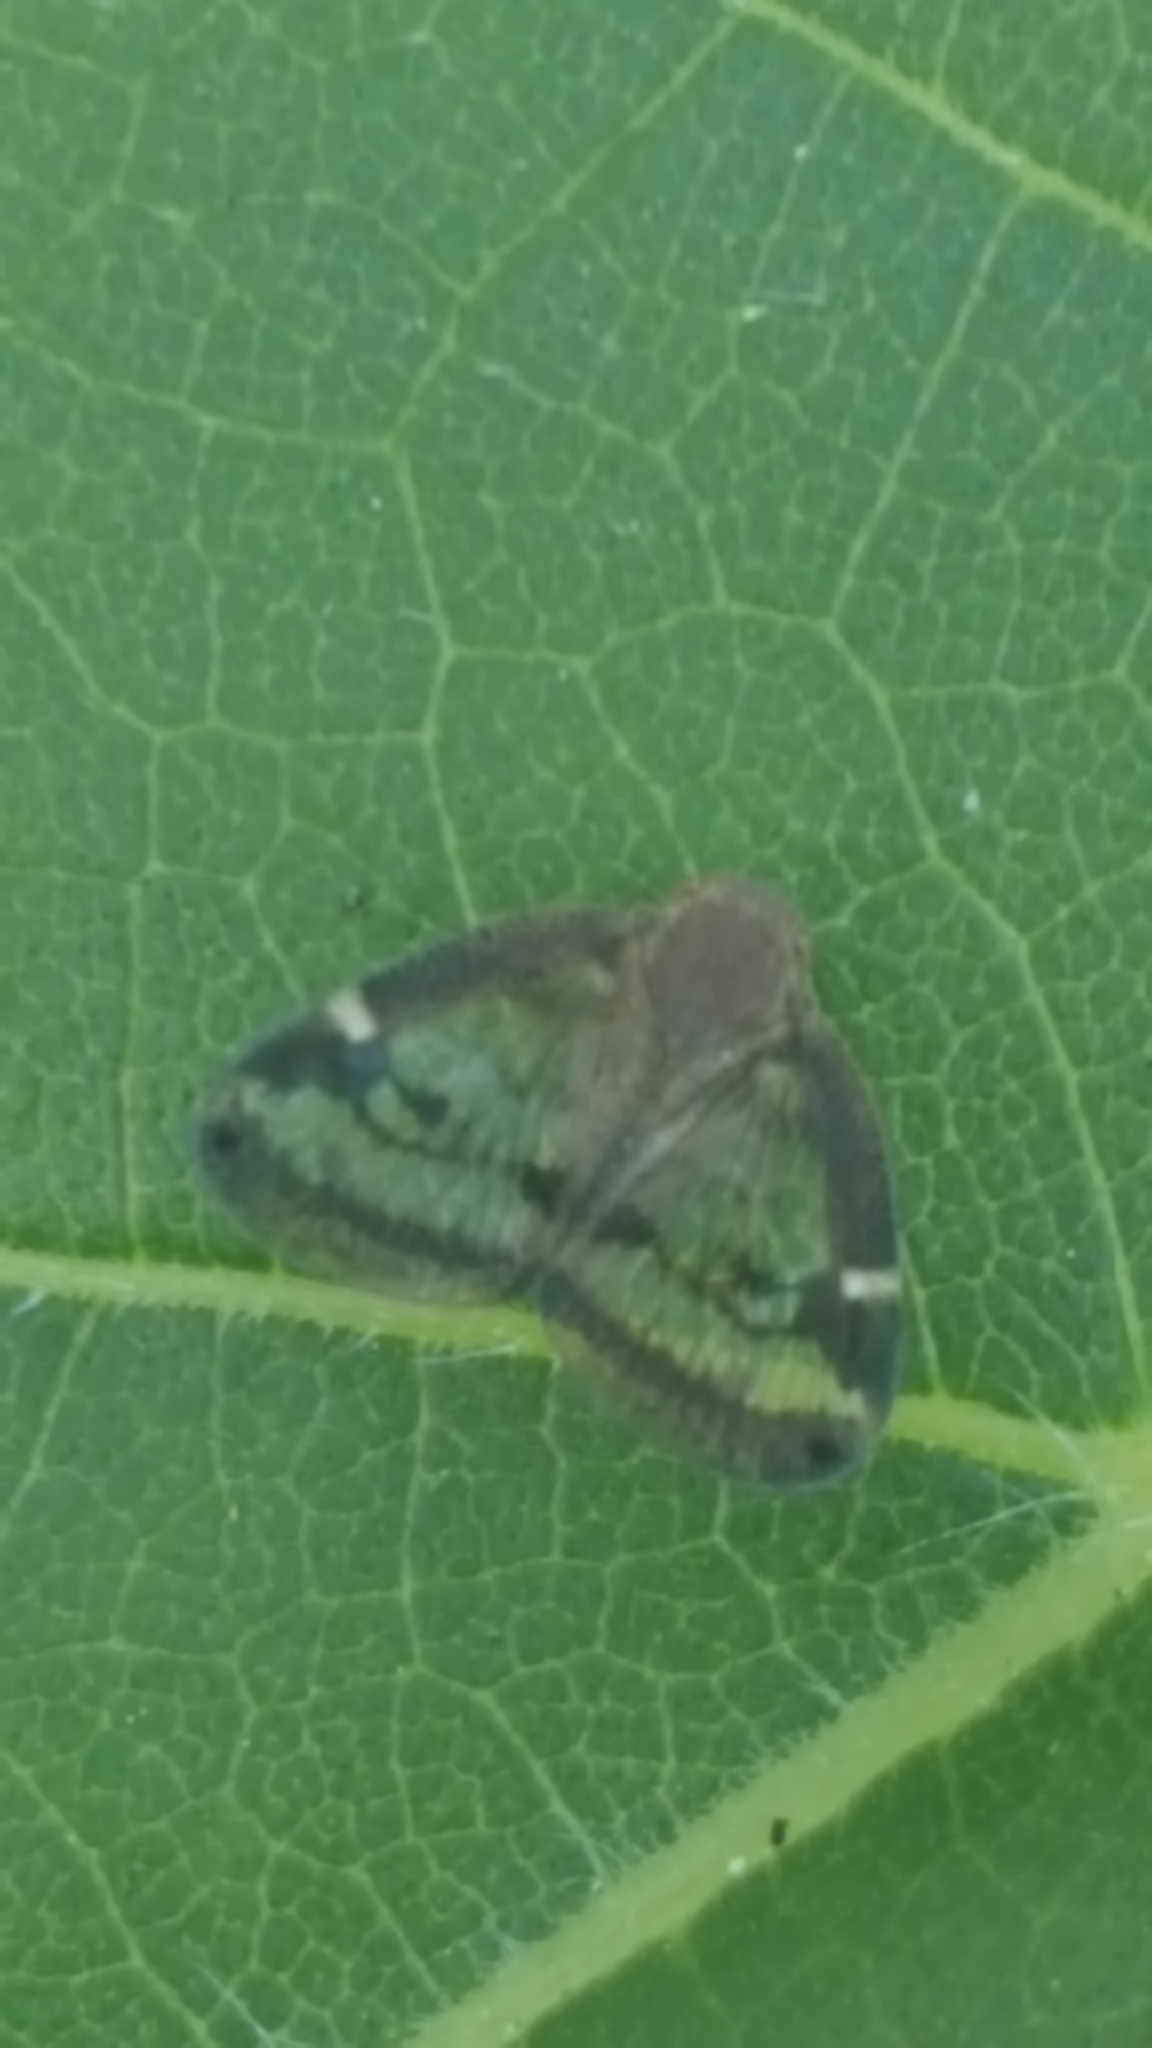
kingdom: Animalia
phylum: Arthropoda
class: Insecta
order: Hemiptera
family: Ricaniidae
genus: Scolypopa
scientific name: Scolypopa australis
